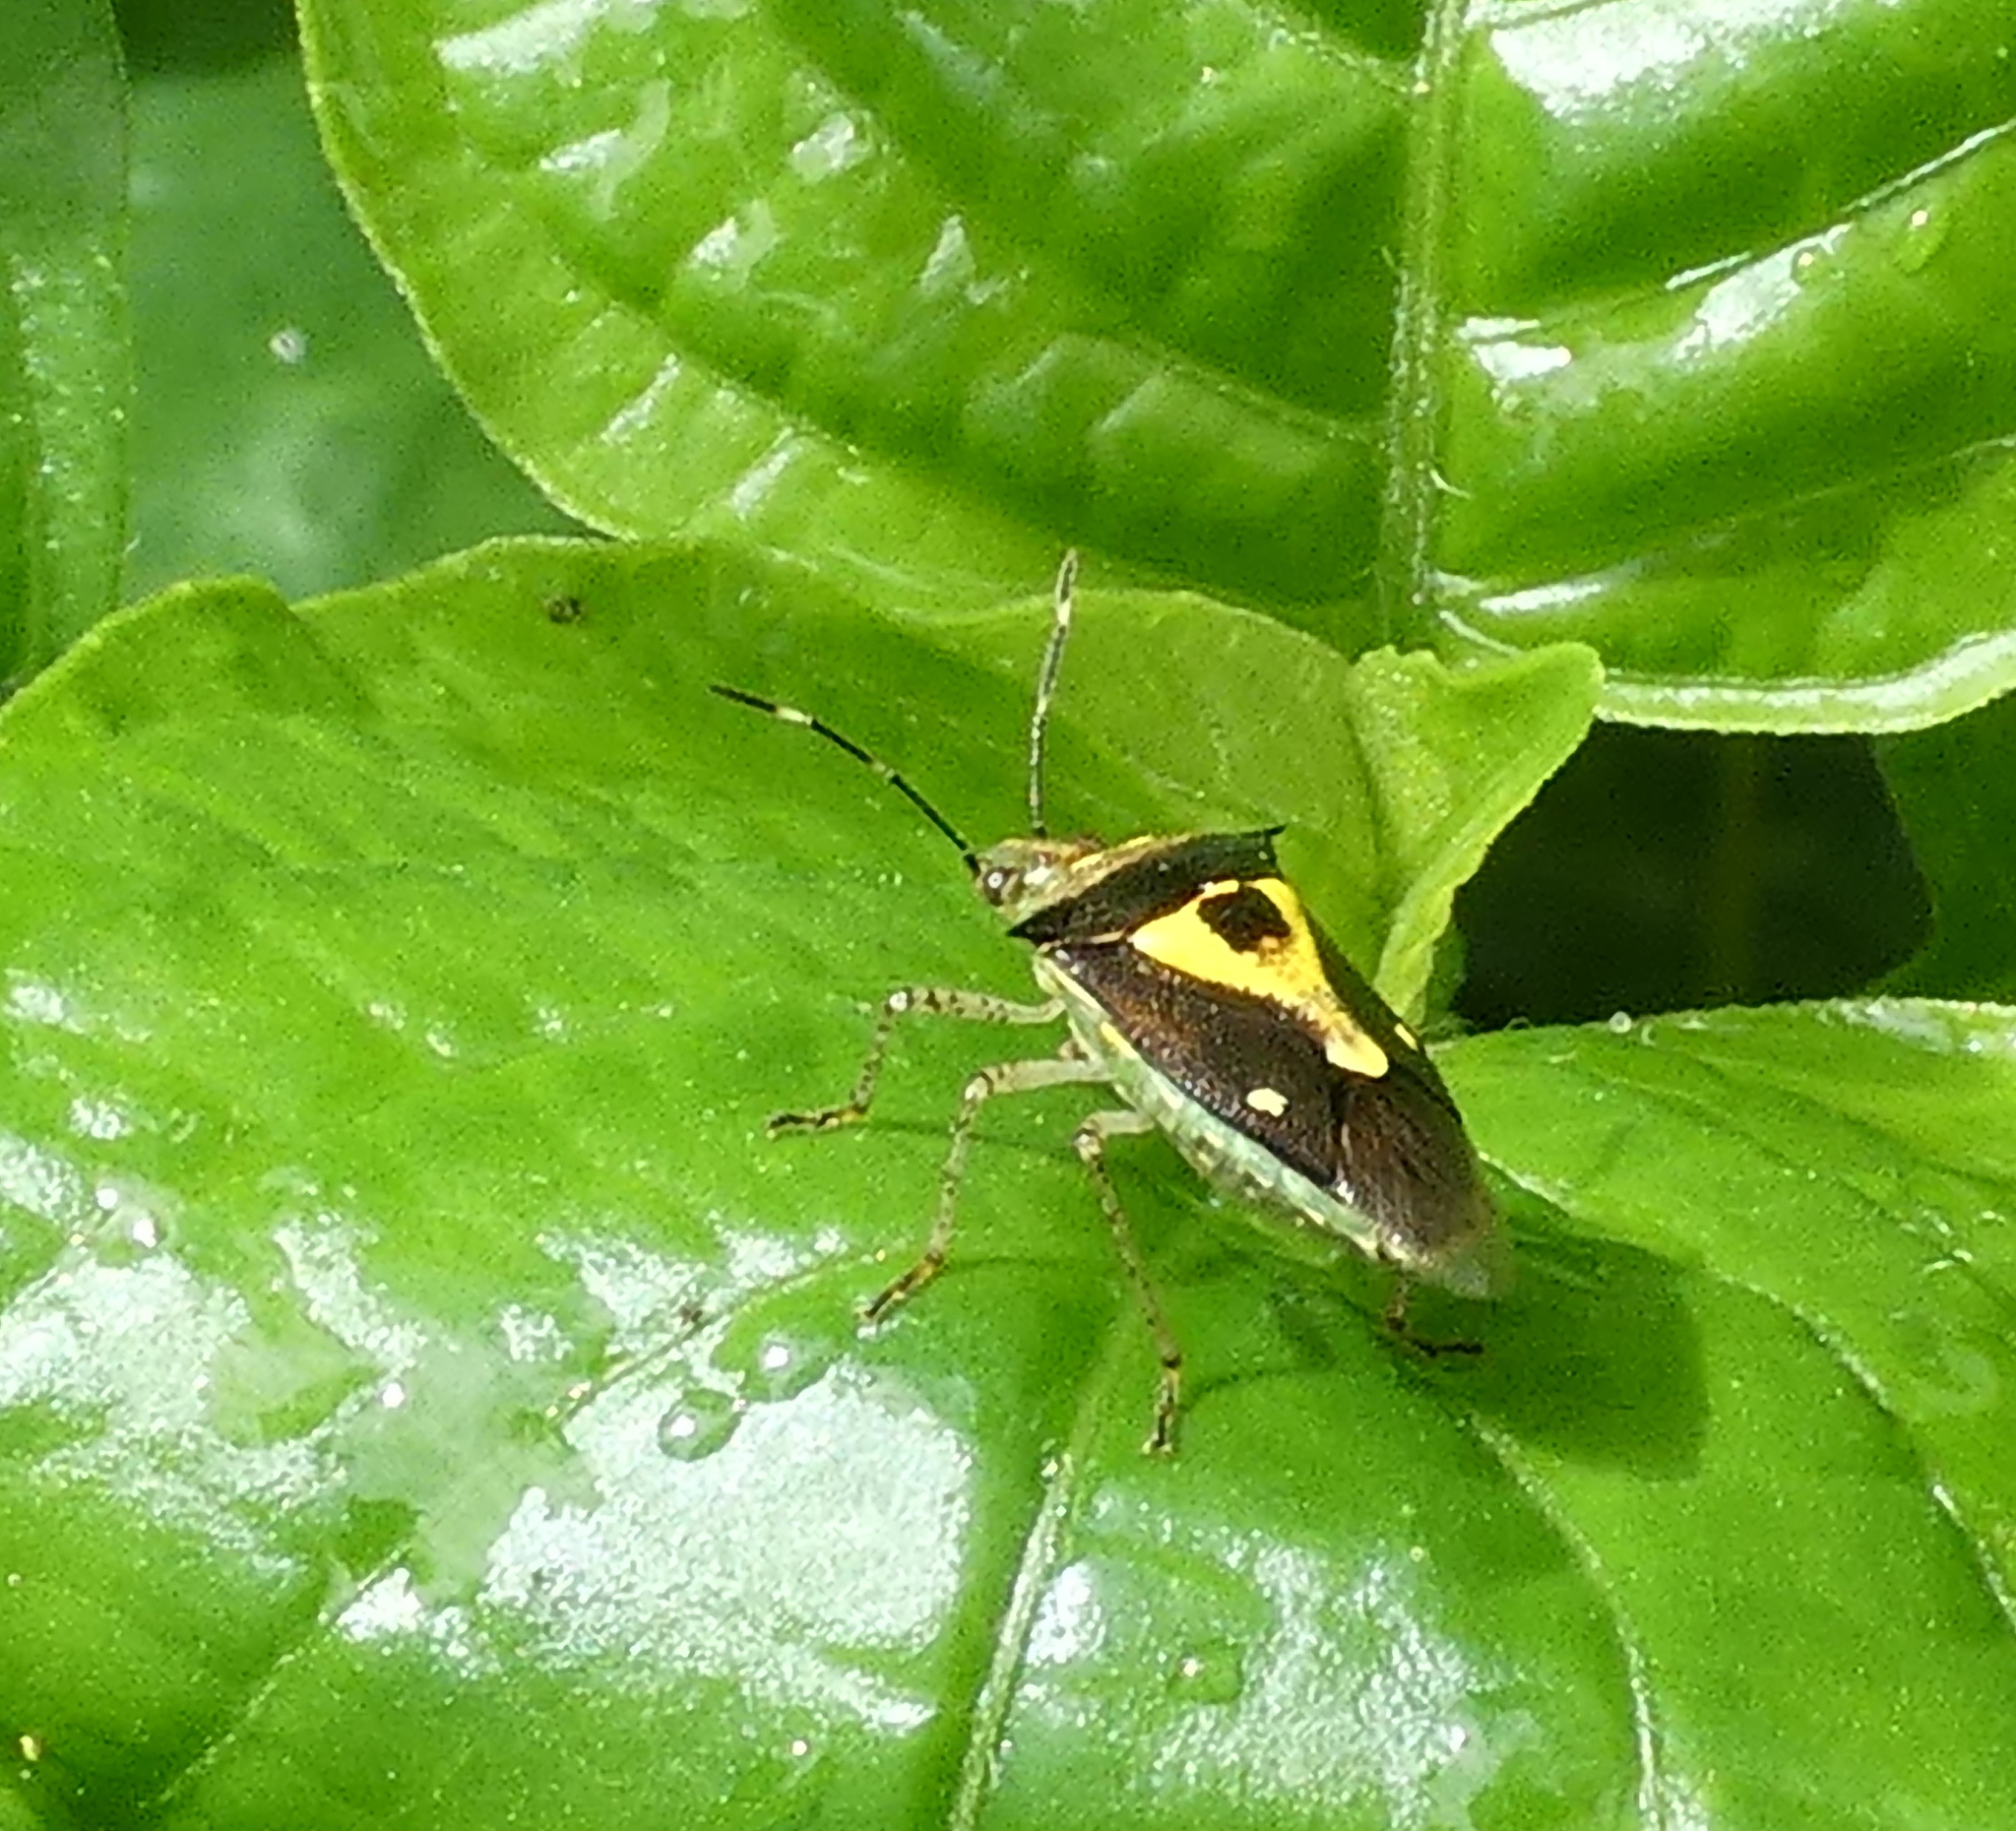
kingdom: Animalia
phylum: Arthropoda
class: Insecta
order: Hemiptera
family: Pentatomidae
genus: Mormidea
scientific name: Mormidea ypsilon
